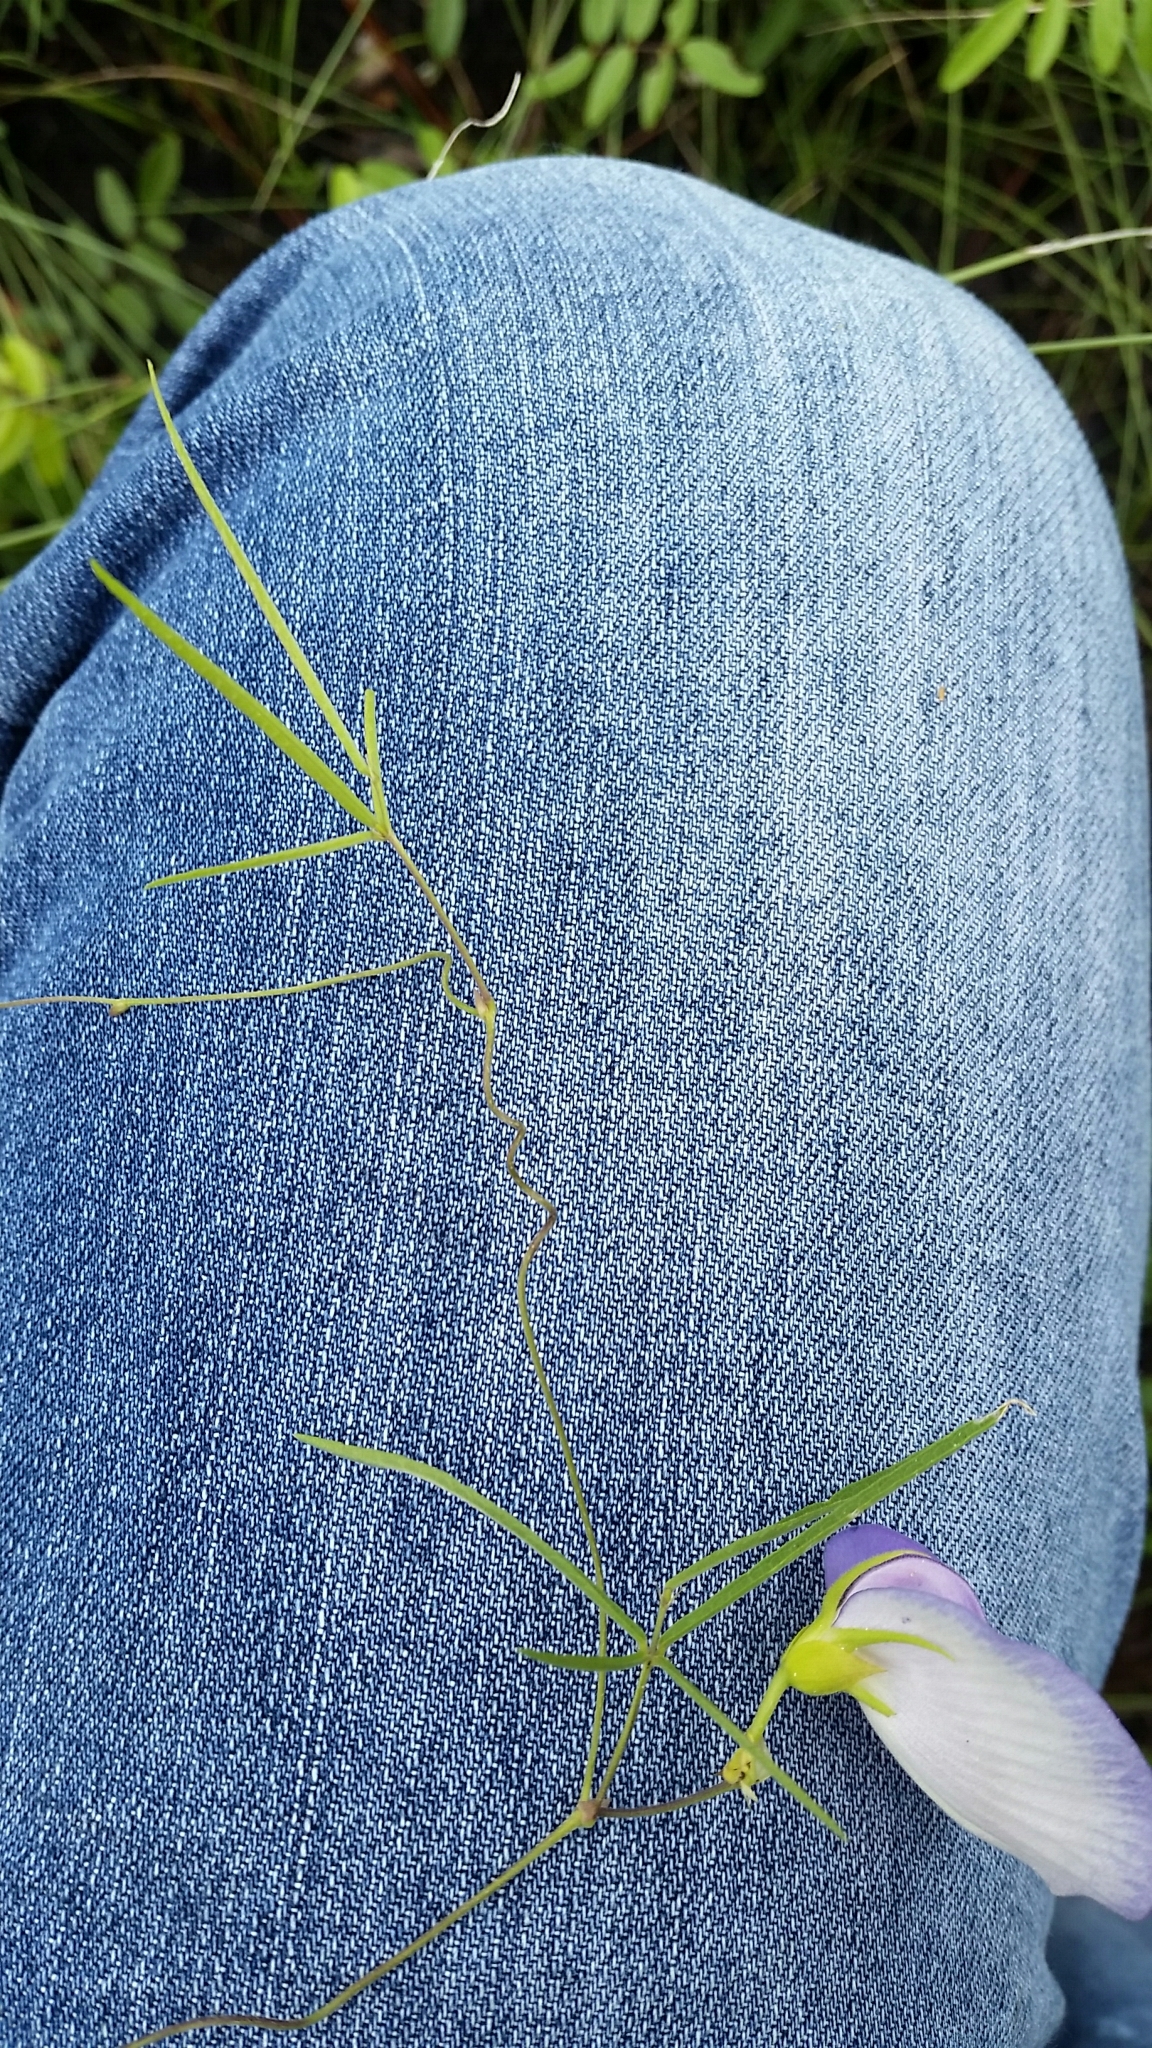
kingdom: Plantae
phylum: Tracheophyta
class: Magnoliopsida
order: Fabales
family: Fabaceae
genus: Centrosema
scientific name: Centrosema virginianum
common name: Butterfly-pea
